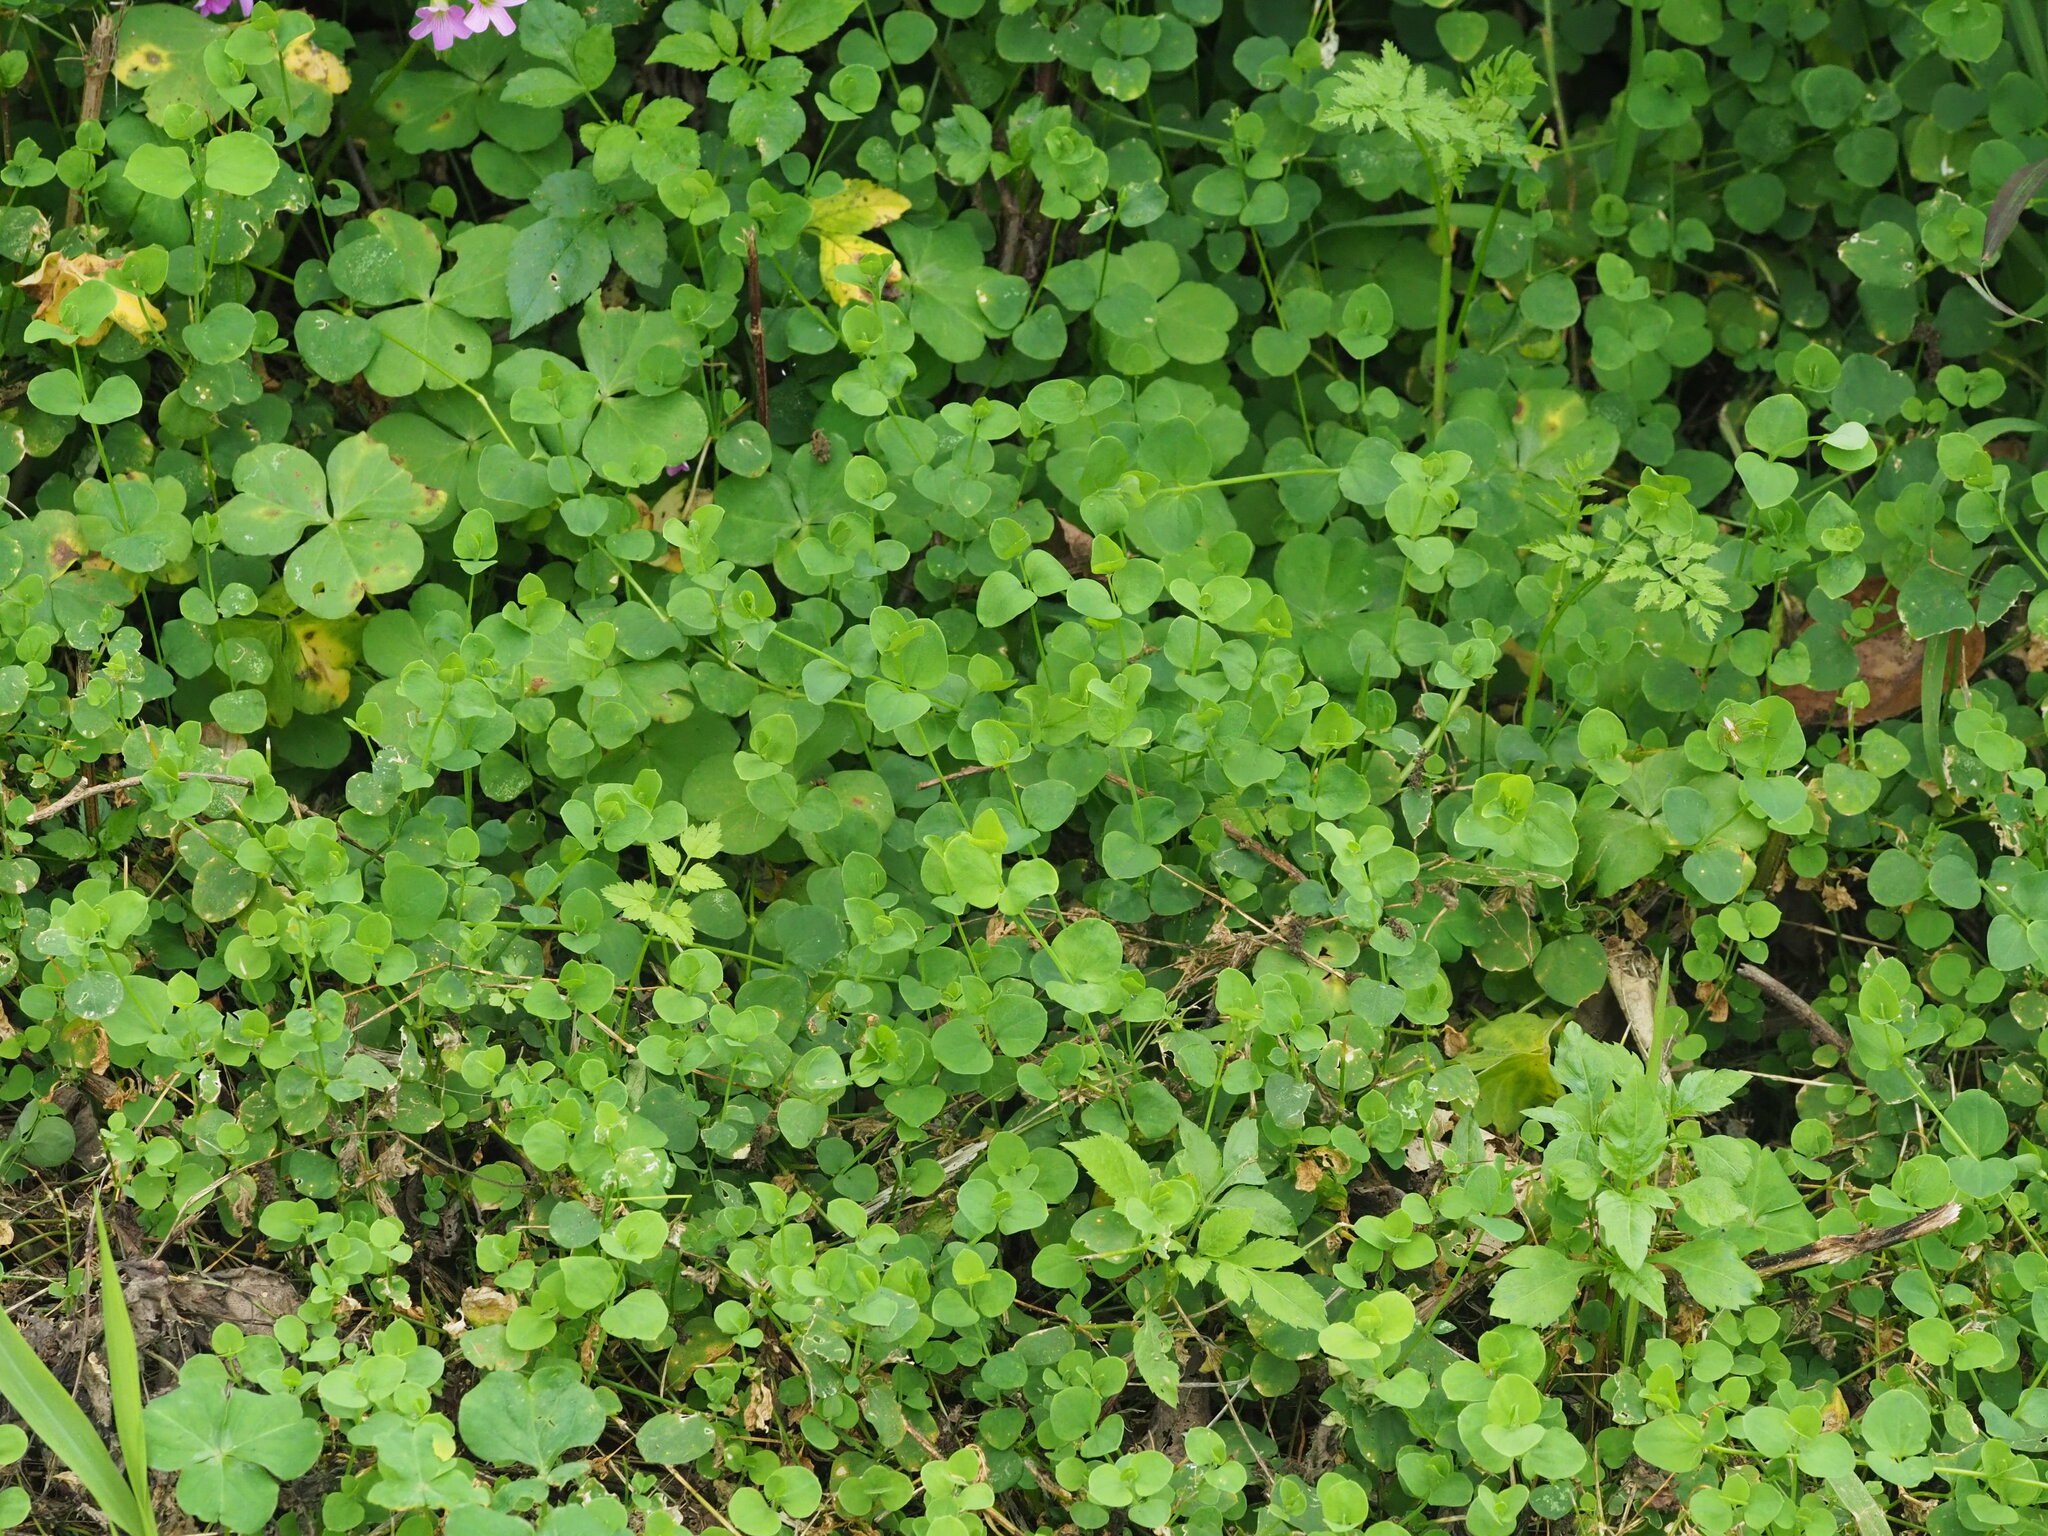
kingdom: Plantae
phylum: Tracheophyta
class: Magnoliopsida
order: Caryophyllales
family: Caryophyllaceae
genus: Drymaria
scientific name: Drymaria cordata
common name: Whitesnow
